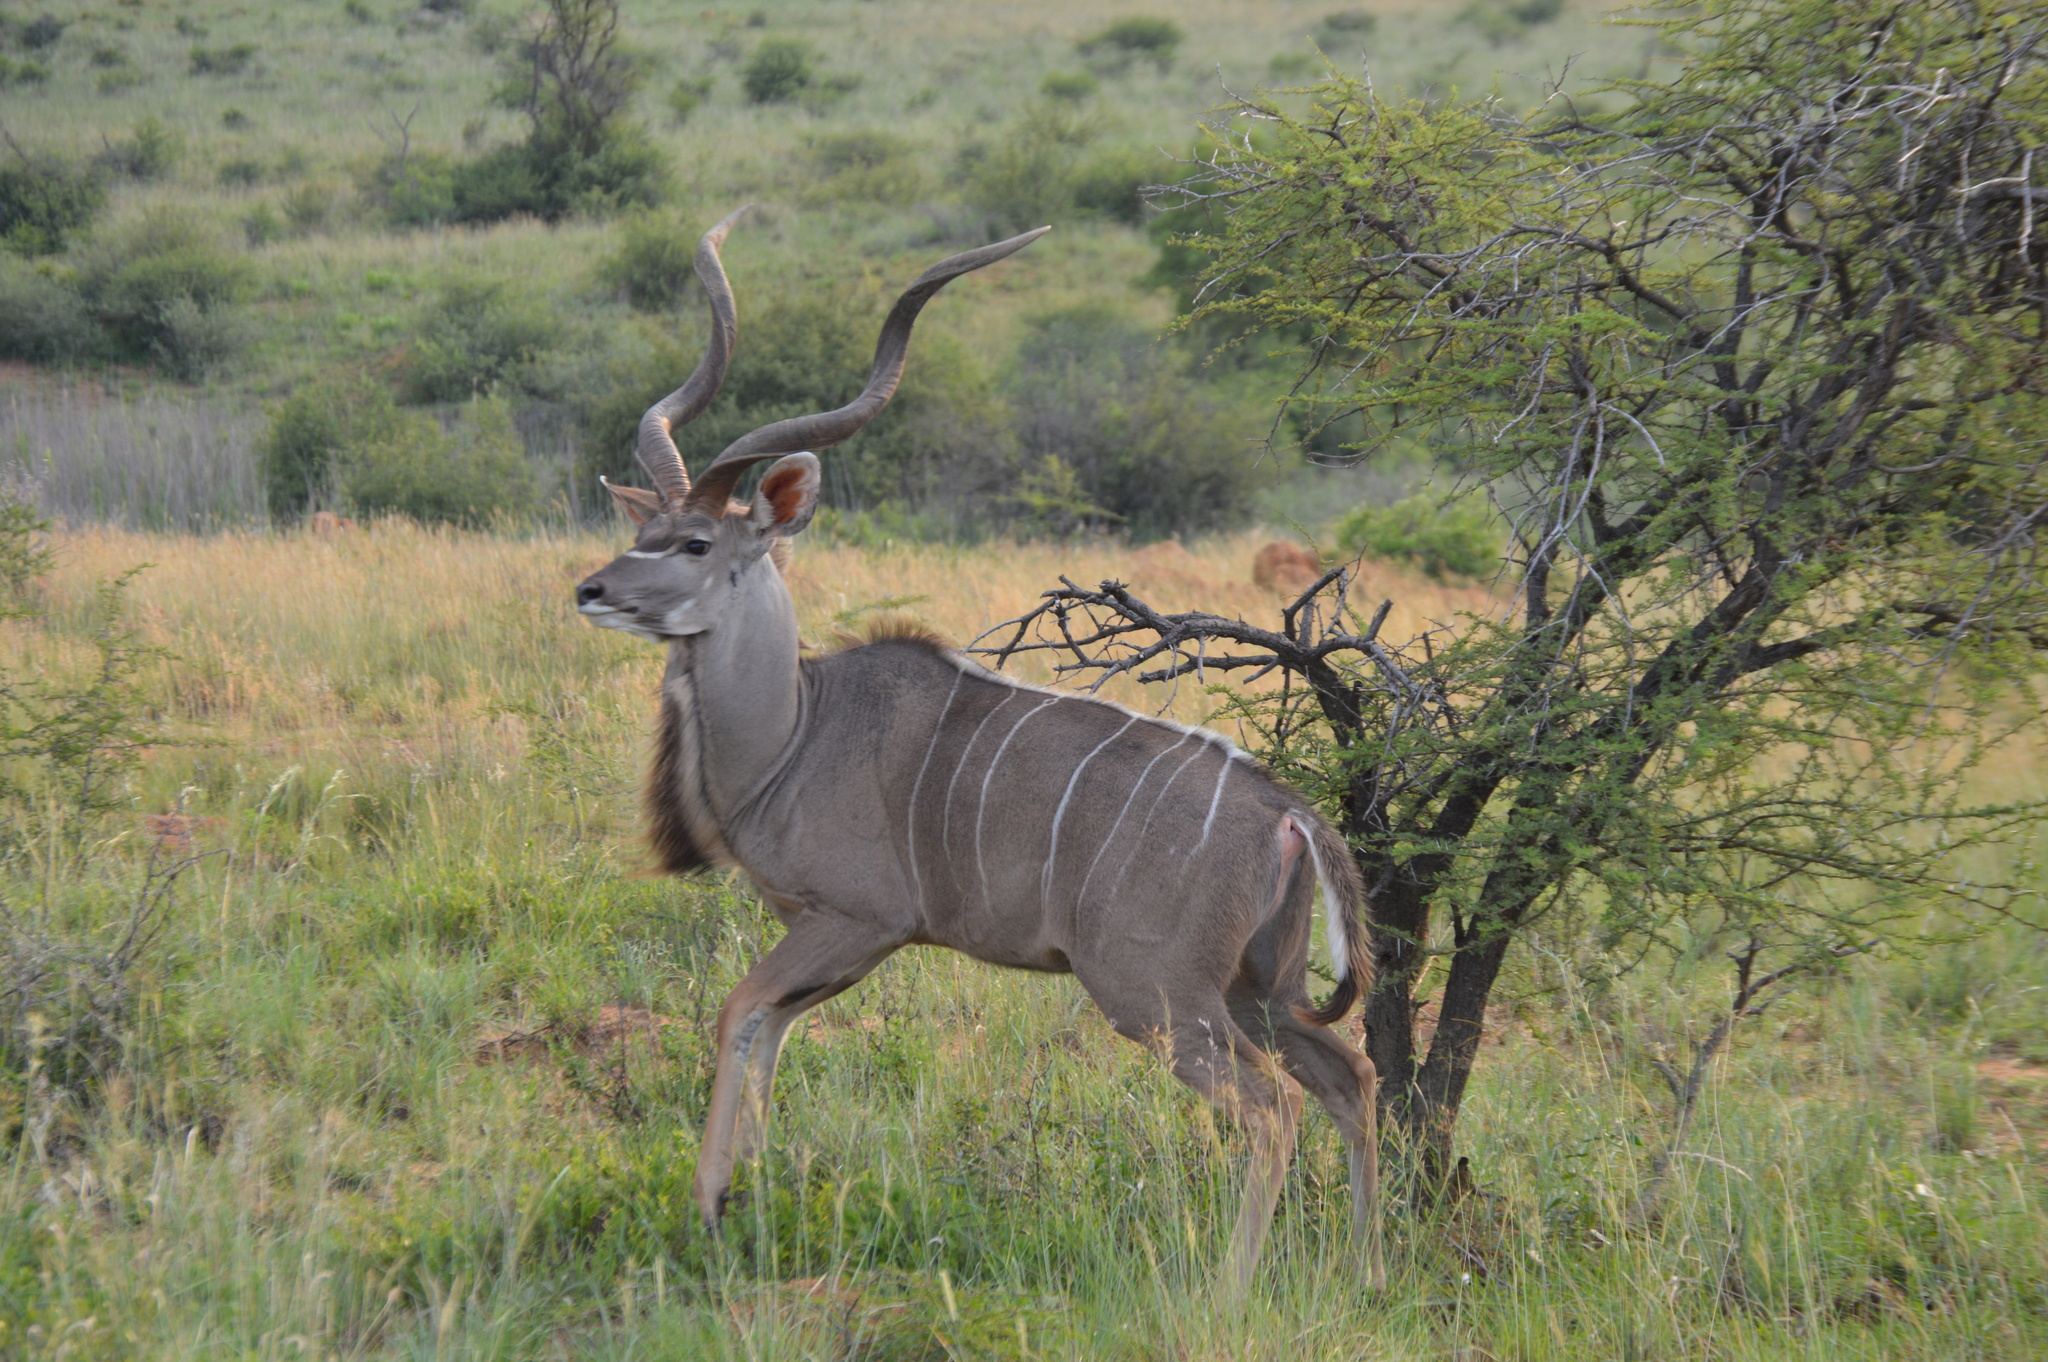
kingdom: Animalia
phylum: Chordata
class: Mammalia
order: Artiodactyla
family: Bovidae
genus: Tragelaphus
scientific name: Tragelaphus strepsiceros
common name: Greater kudu
